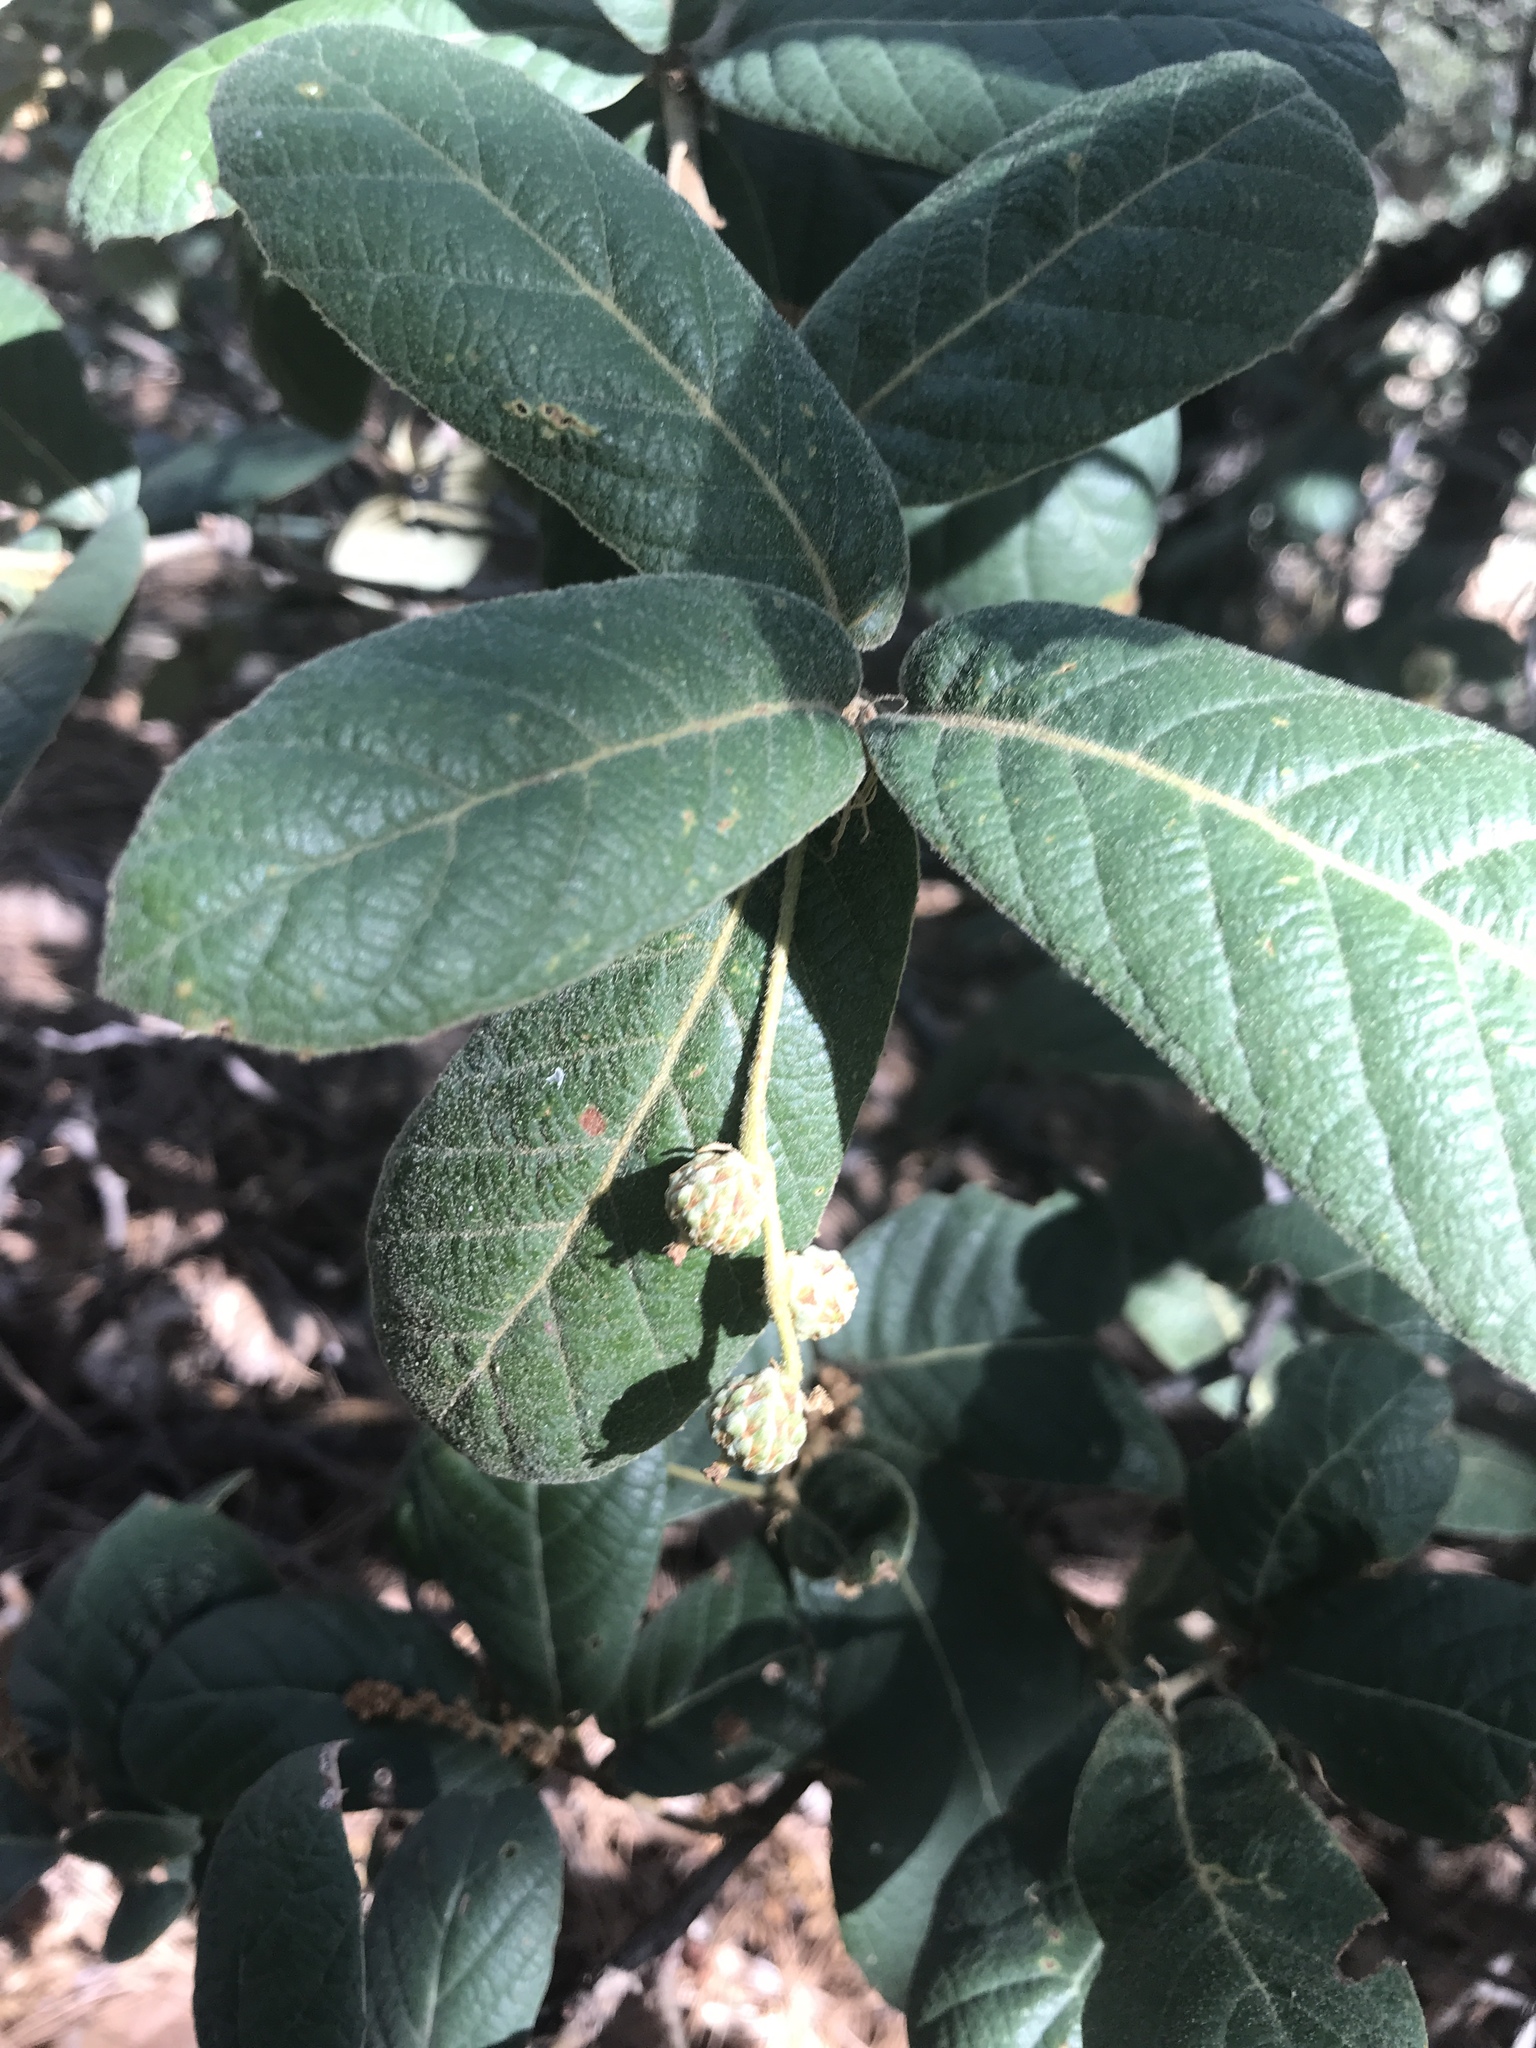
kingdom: Plantae
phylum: Tracheophyta
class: Magnoliopsida
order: Fagales
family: Fagaceae
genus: Quercus
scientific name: Quercus rugosa
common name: Netleaf oak
